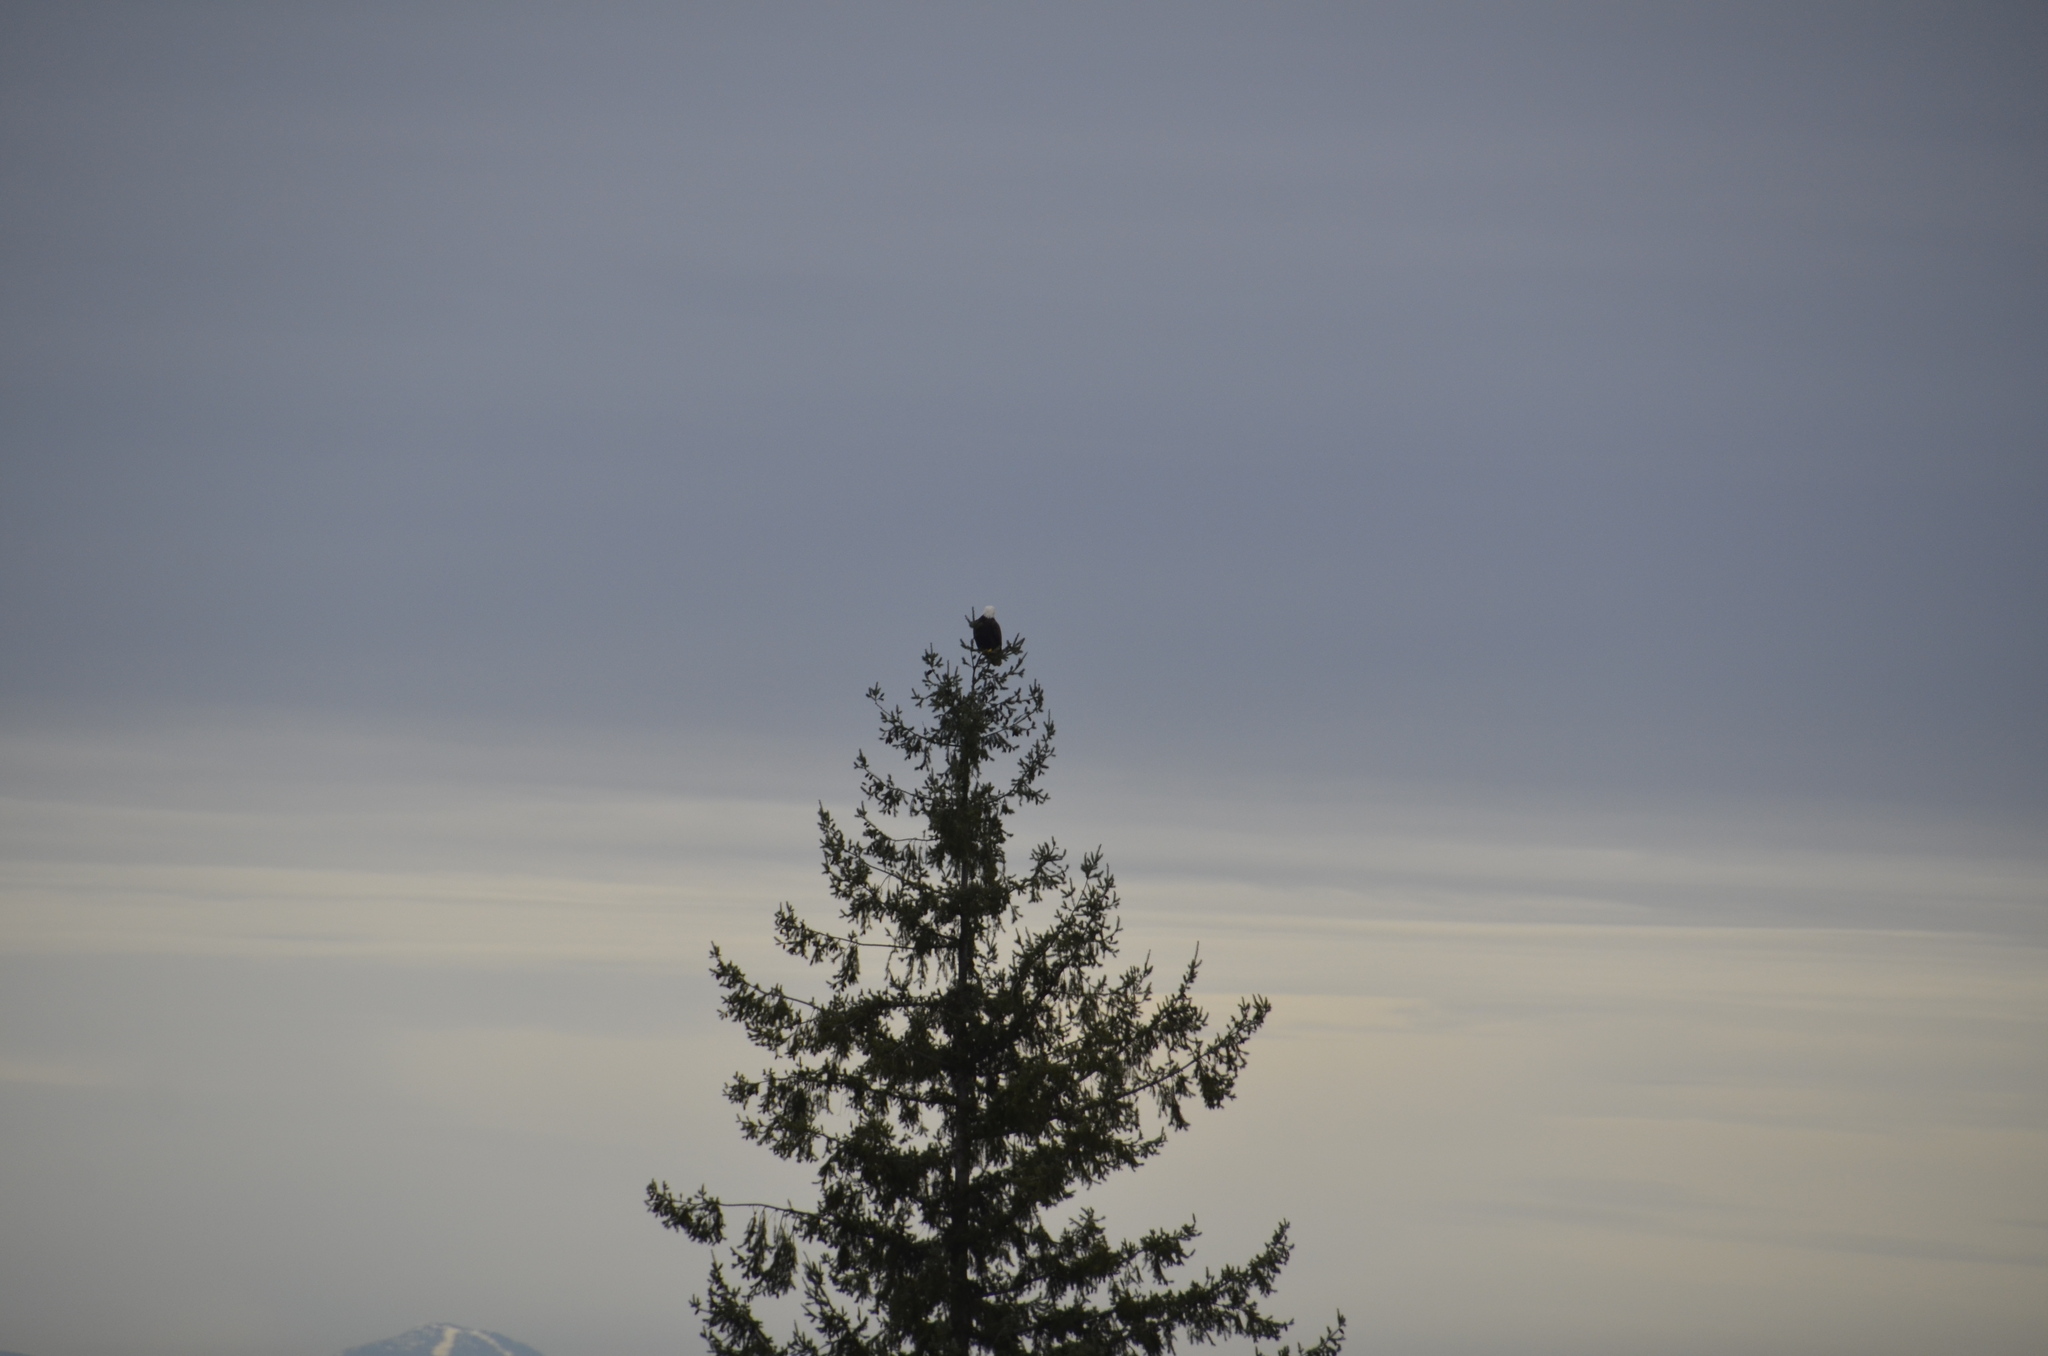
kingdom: Animalia
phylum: Chordata
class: Aves
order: Accipitriformes
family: Accipitridae
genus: Haliaeetus
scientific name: Haliaeetus leucocephalus
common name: Bald eagle
